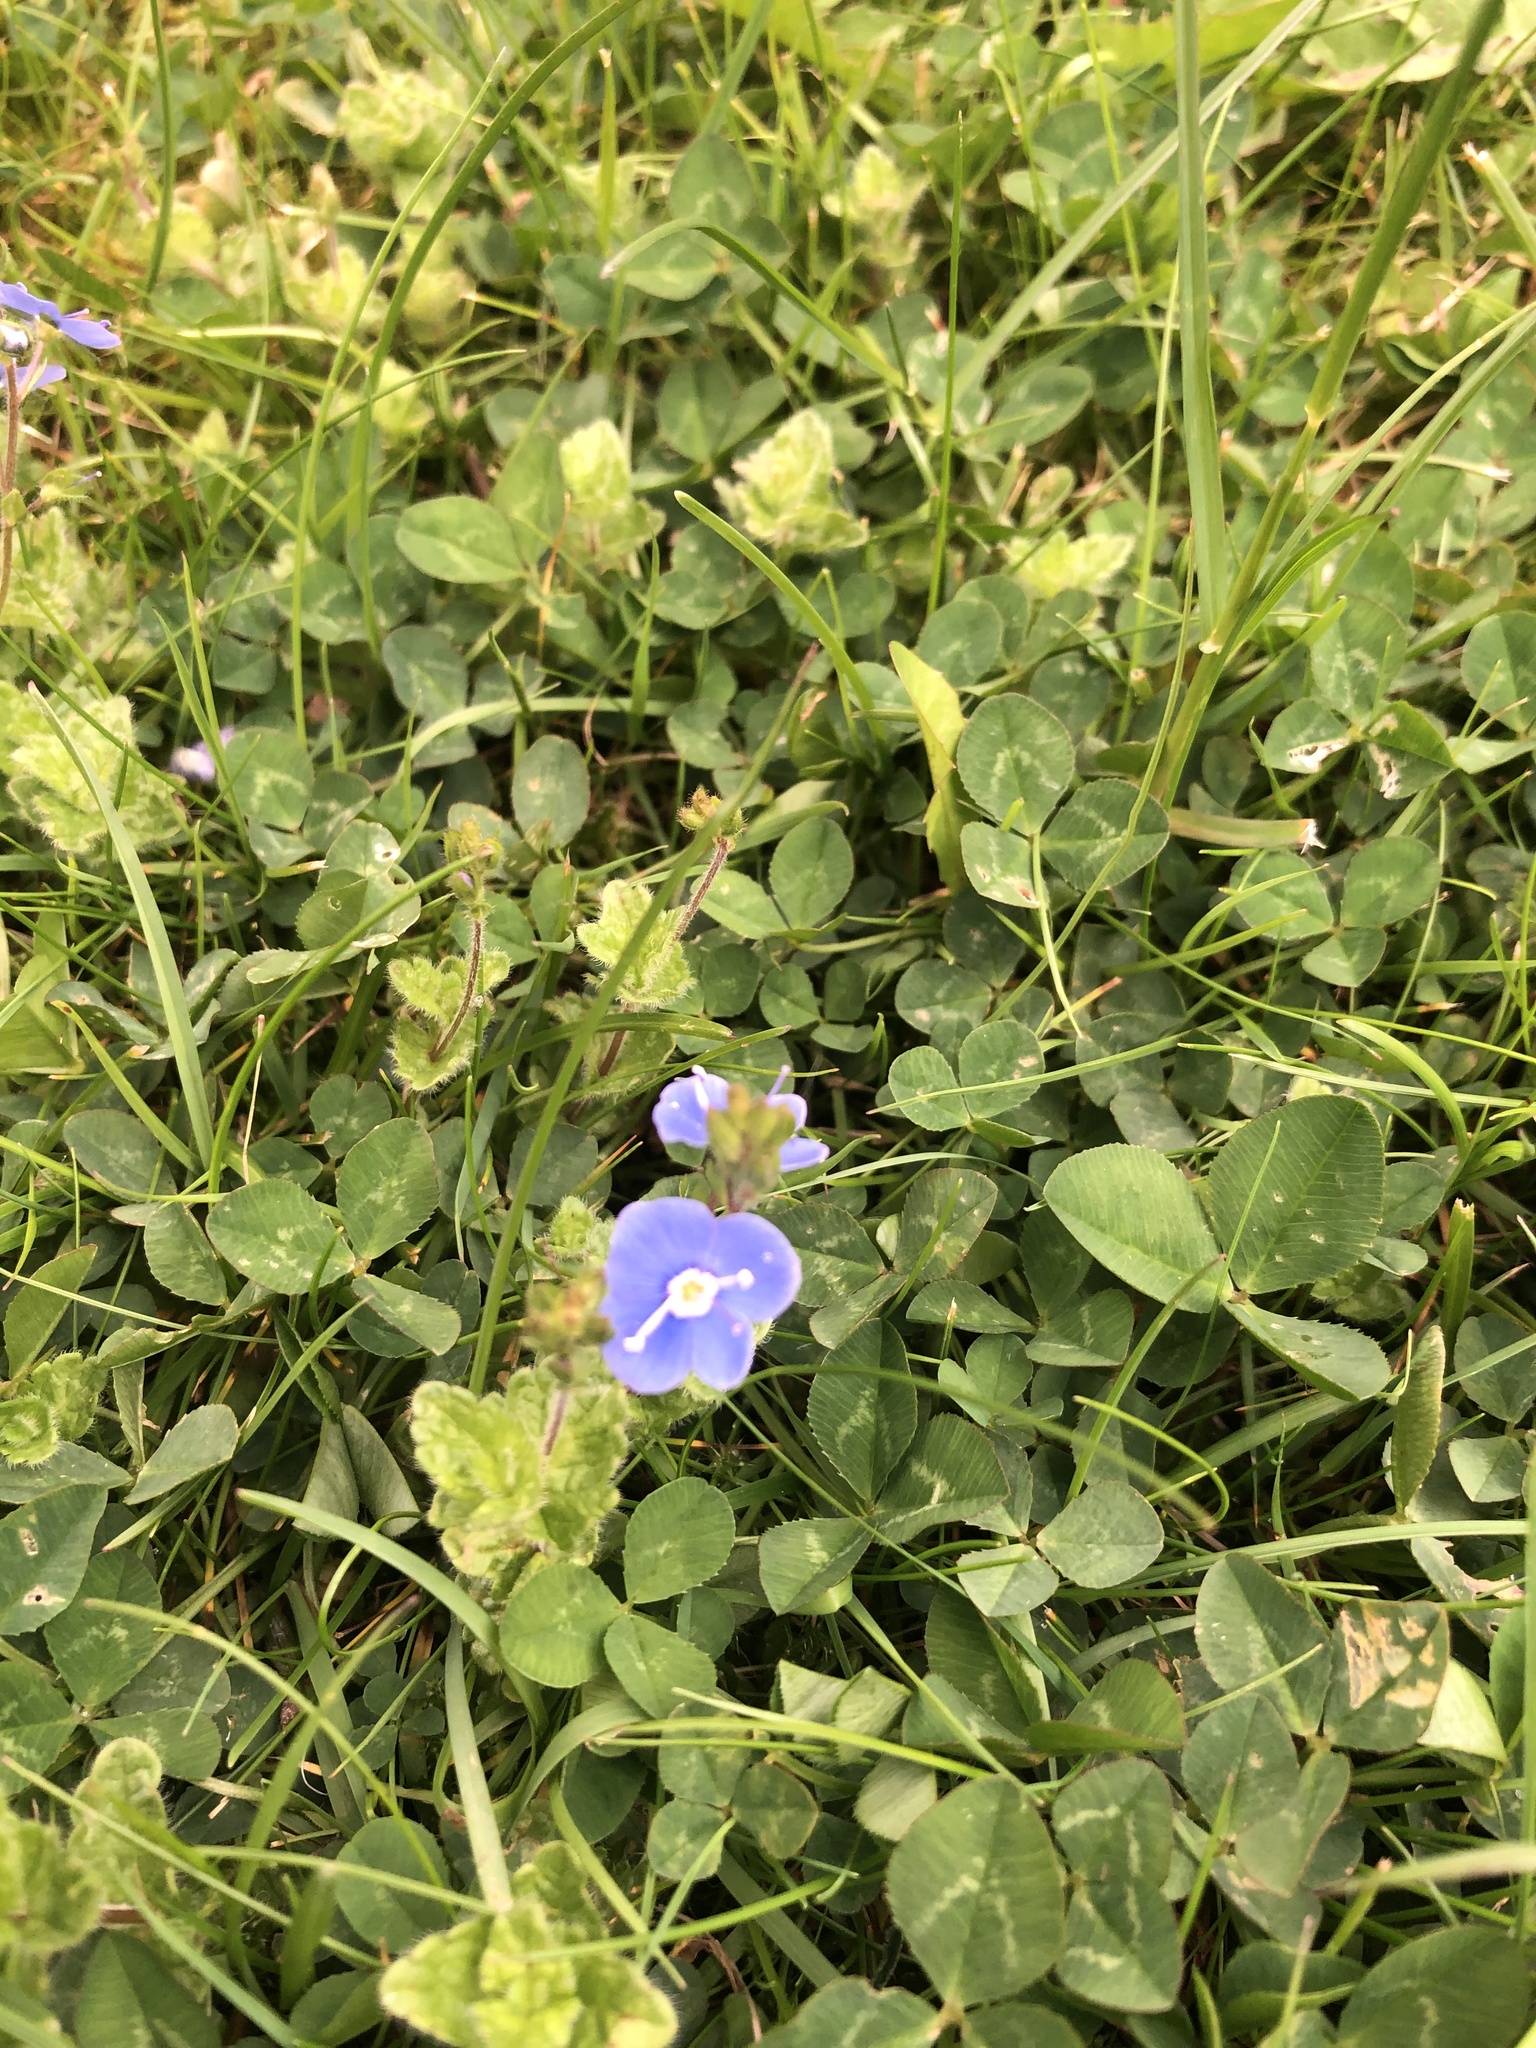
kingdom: Plantae
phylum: Tracheophyta
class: Magnoliopsida
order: Lamiales
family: Plantaginaceae
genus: Veronica
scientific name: Veronica chamaedrys
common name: Germander speedwell
